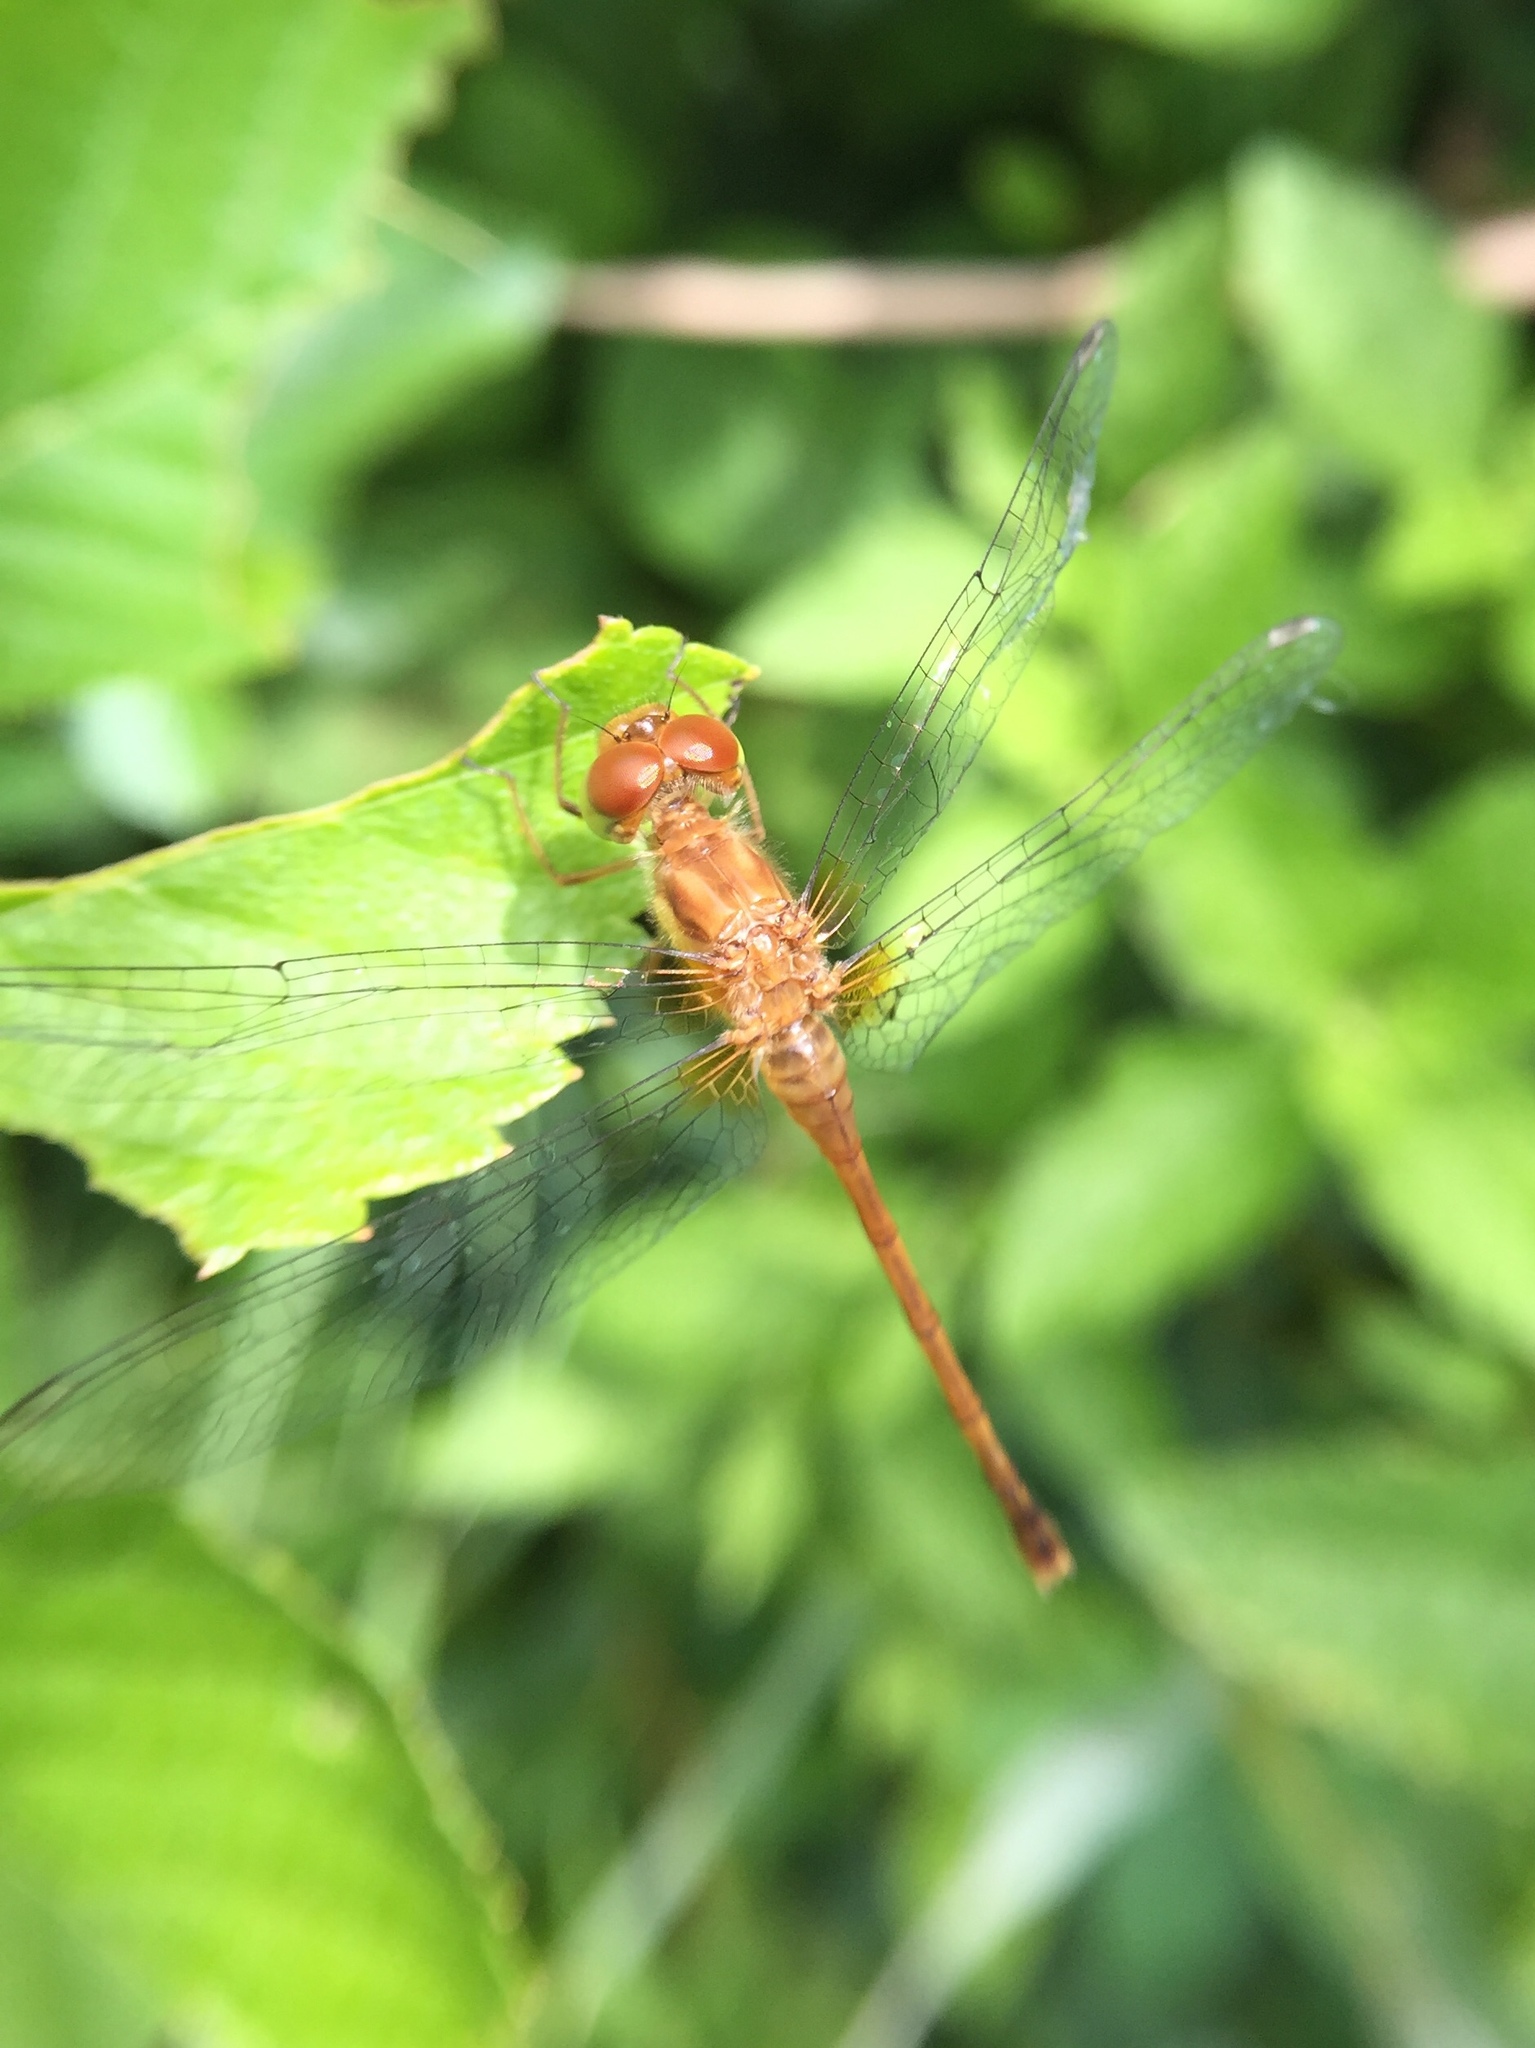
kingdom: Animalia
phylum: Arthropoda
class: Insecta
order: Odonata
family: Libellulidae
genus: Sympetrum
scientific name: Sympetrum vicinum
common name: Autumn meadowhawk
